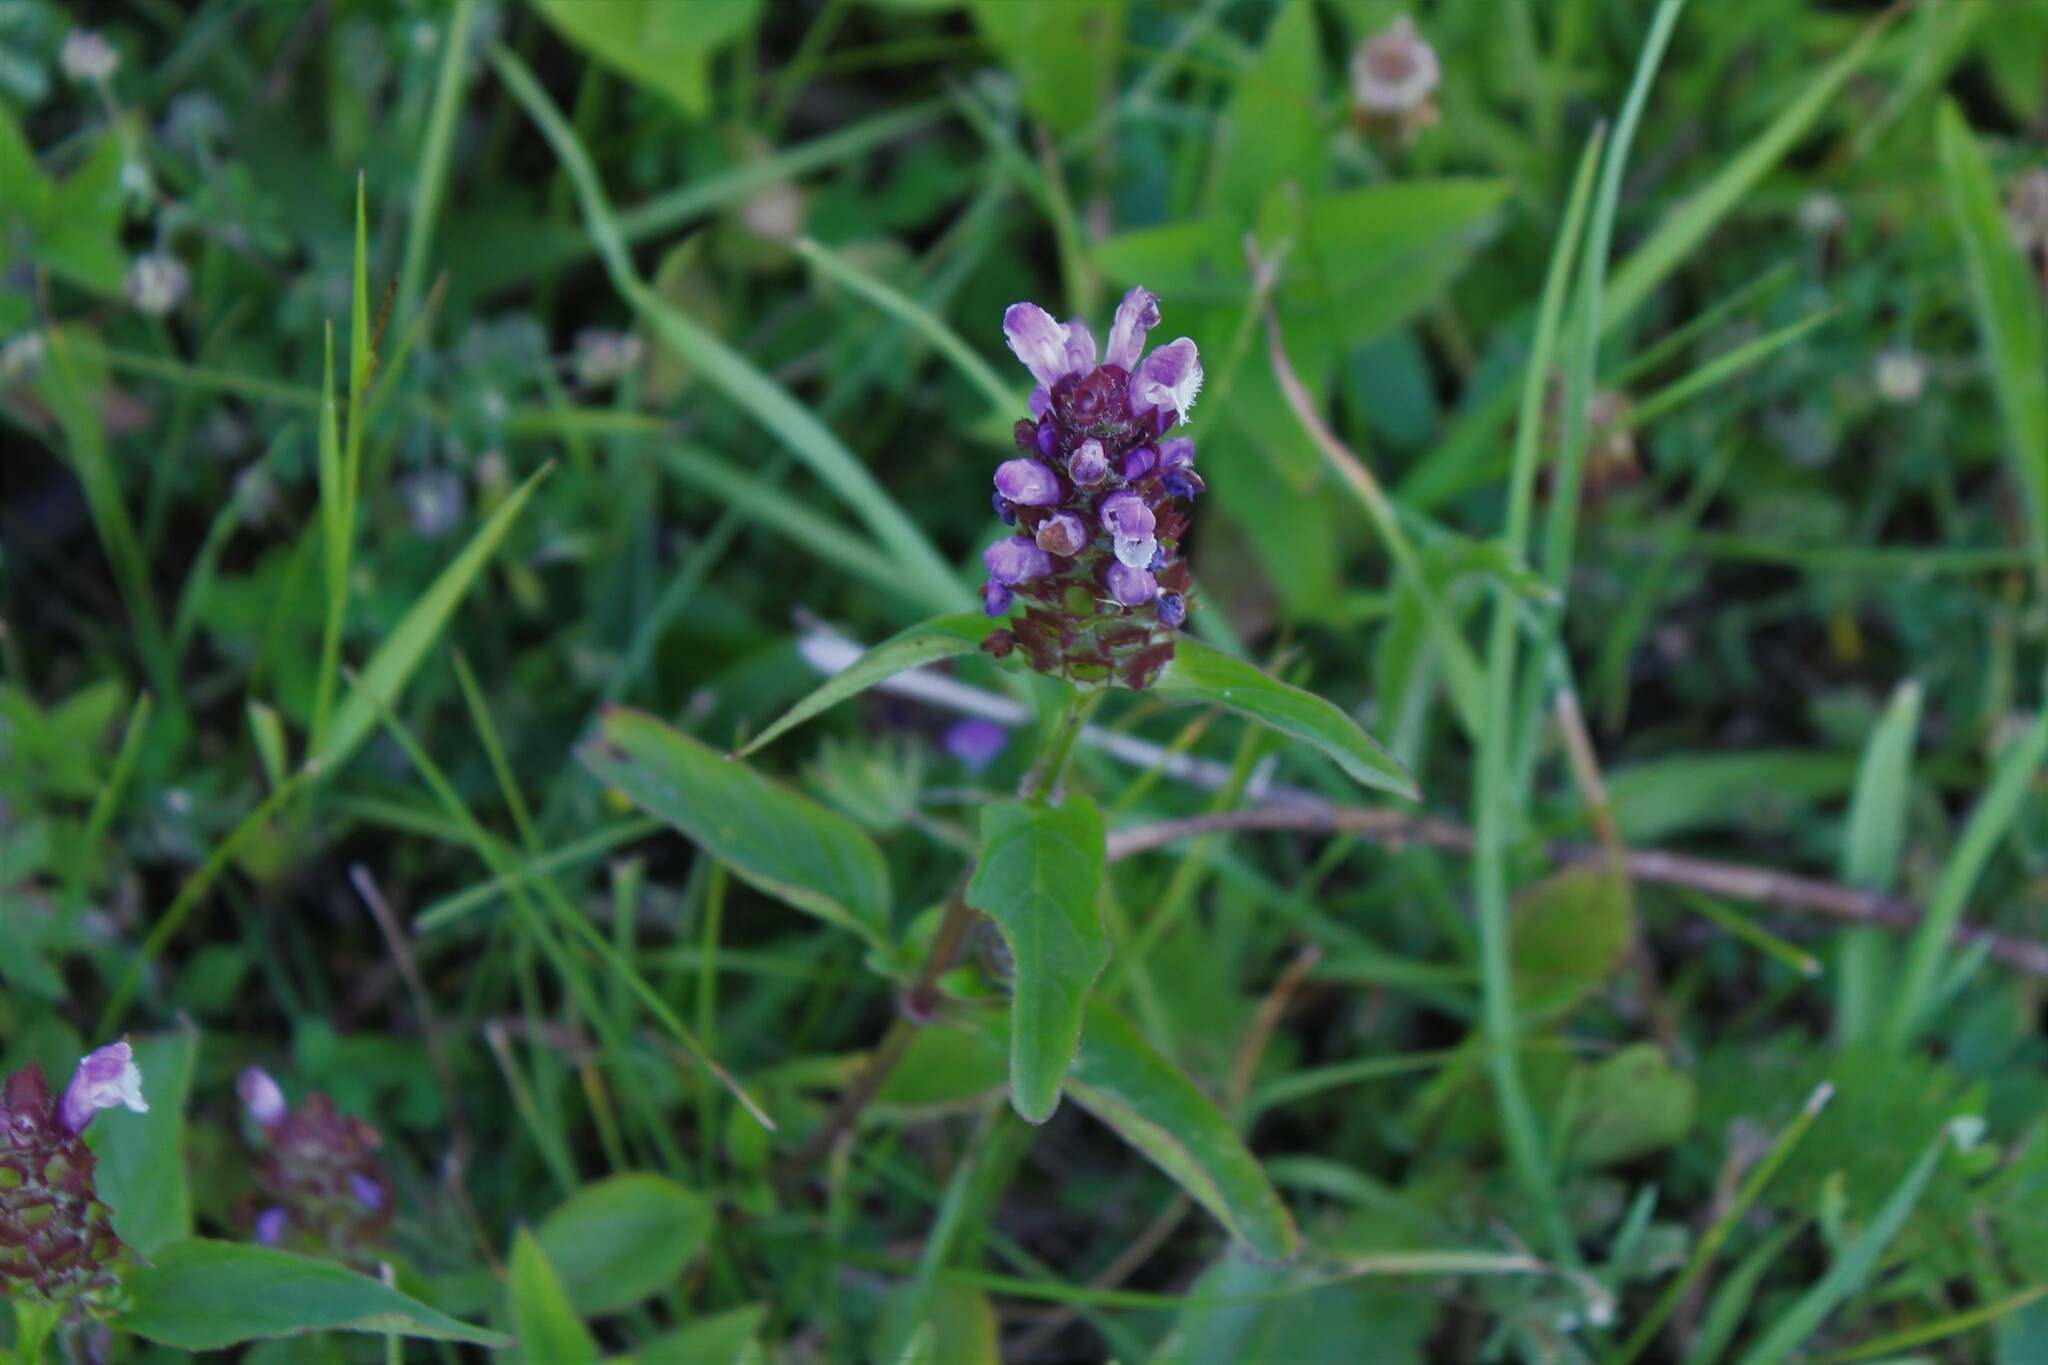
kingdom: Plantae
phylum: Tracheophyta
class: Magnoliopsida
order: Lamiales
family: Lamiaceae
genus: Prunella
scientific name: Prunella vulgaris
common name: Heal-all
